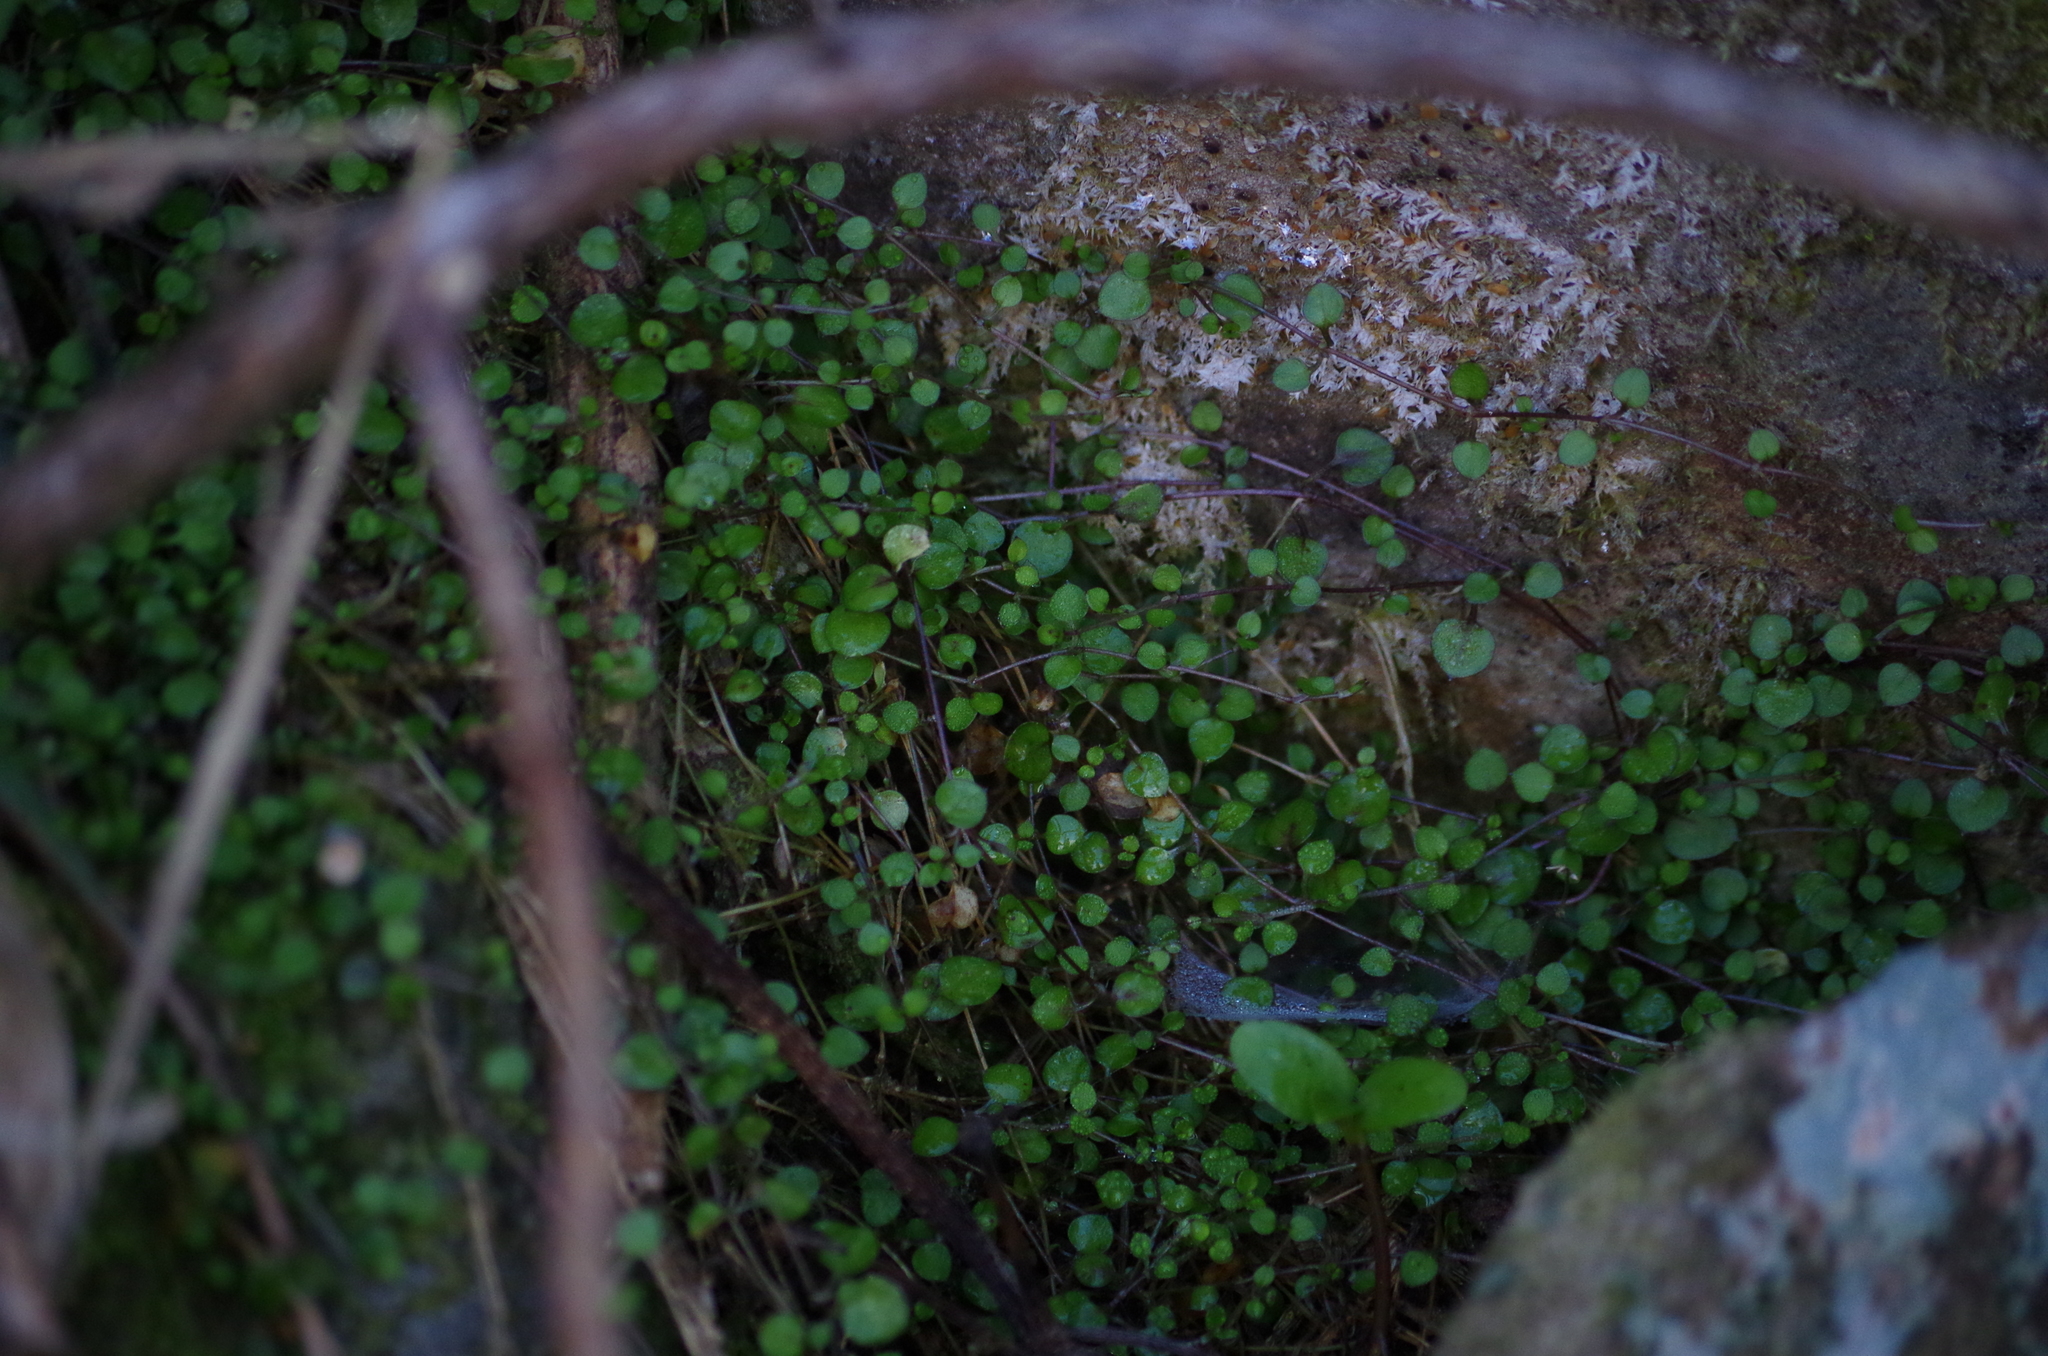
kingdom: Plantae
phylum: Tracheophyta
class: Magnoliopsida
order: Caryophyllales
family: Caryophyllaceae
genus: Stellaria
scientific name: Stellaria parviflora
